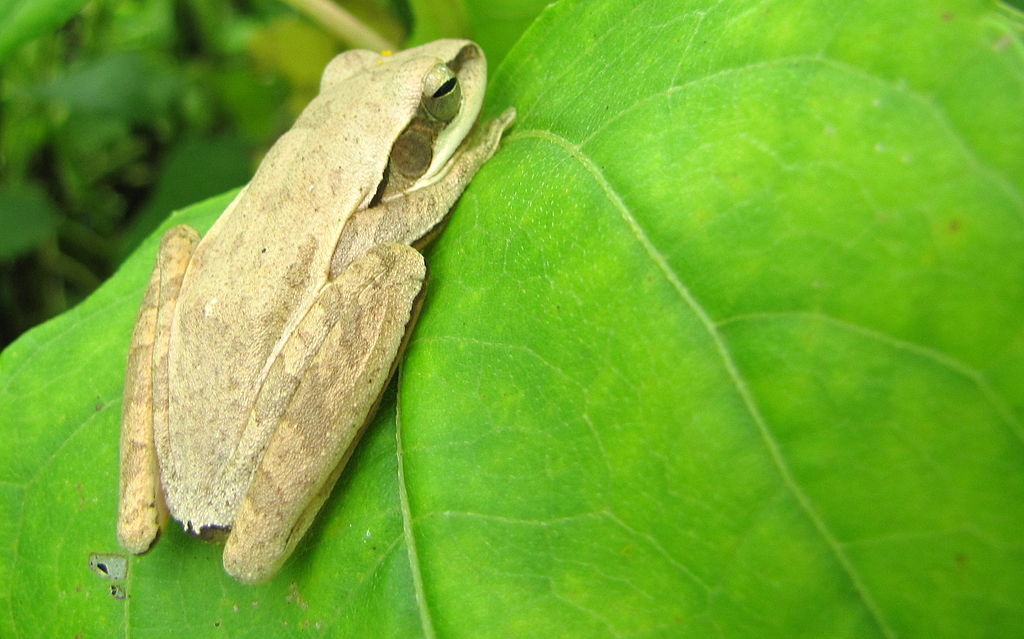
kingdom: Animalia
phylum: Chordata
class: Amphibia
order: Anura
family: Rhacophoridae
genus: Polypedates
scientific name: Polypedates maculatus
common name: Himalayan tree frog
